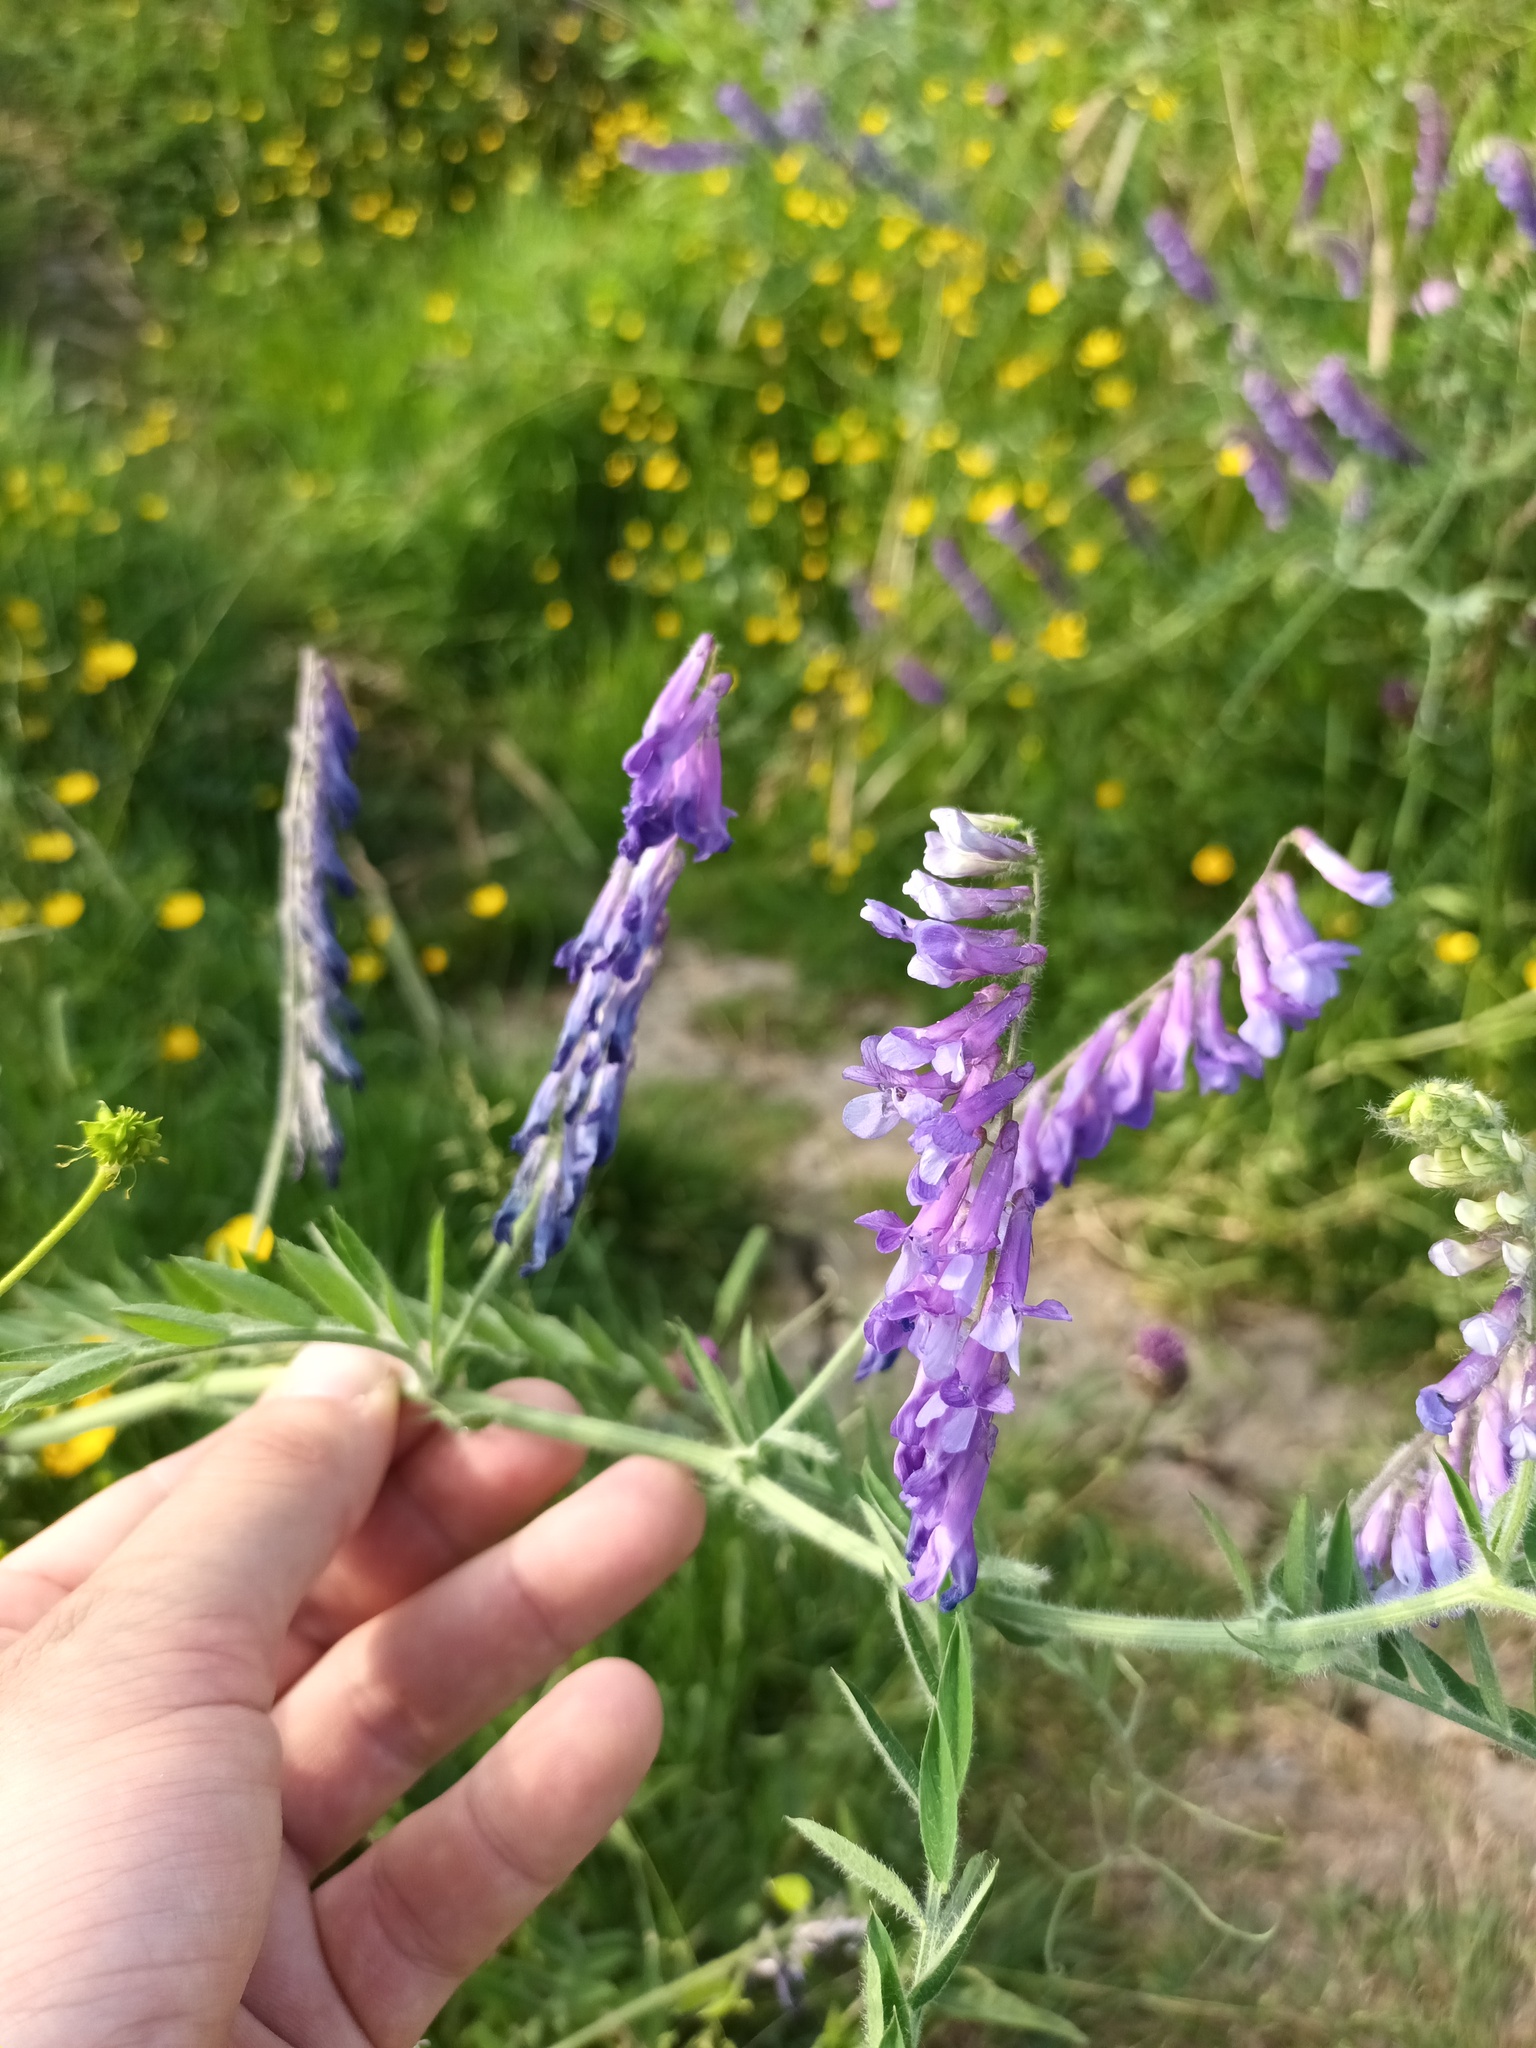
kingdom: Plantae
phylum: Tracheophyta
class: Magnoliopsida
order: Fabales
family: Fabaceae
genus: Vicia
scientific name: Vicia cracca
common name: Bird vetch
